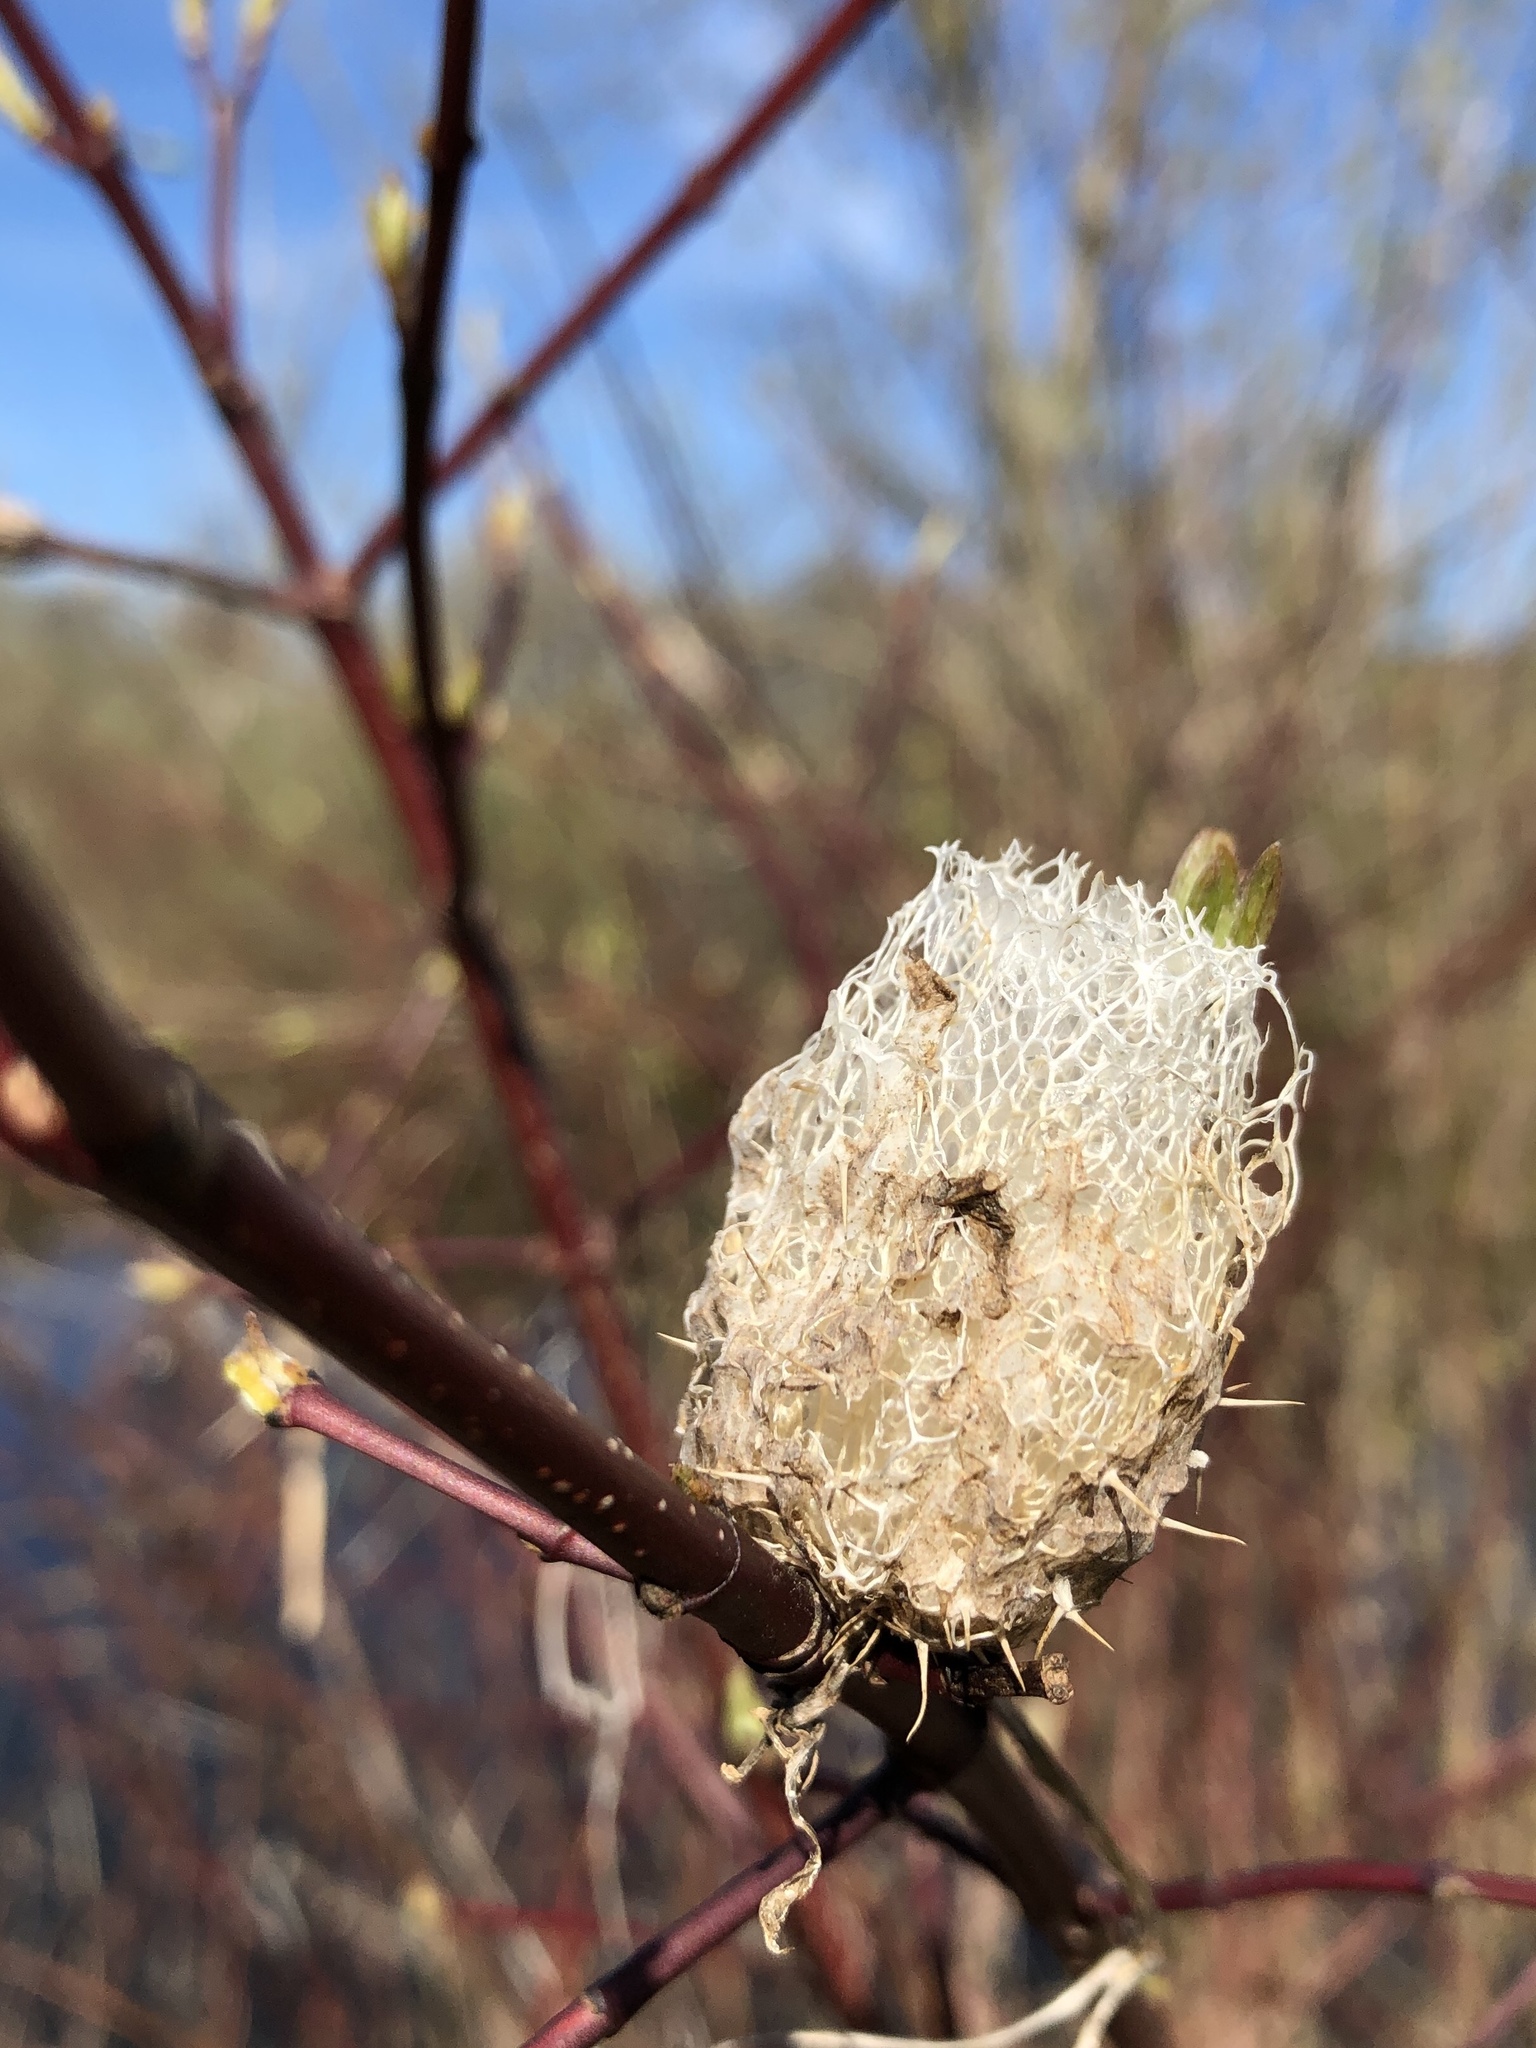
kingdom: Plantae
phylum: Tracheophyta
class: Magnoliopsida
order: Cucurbitales
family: Cucurbitaceae
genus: Echinocystis
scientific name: Echinocystis lobata
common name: Wild cucumber
